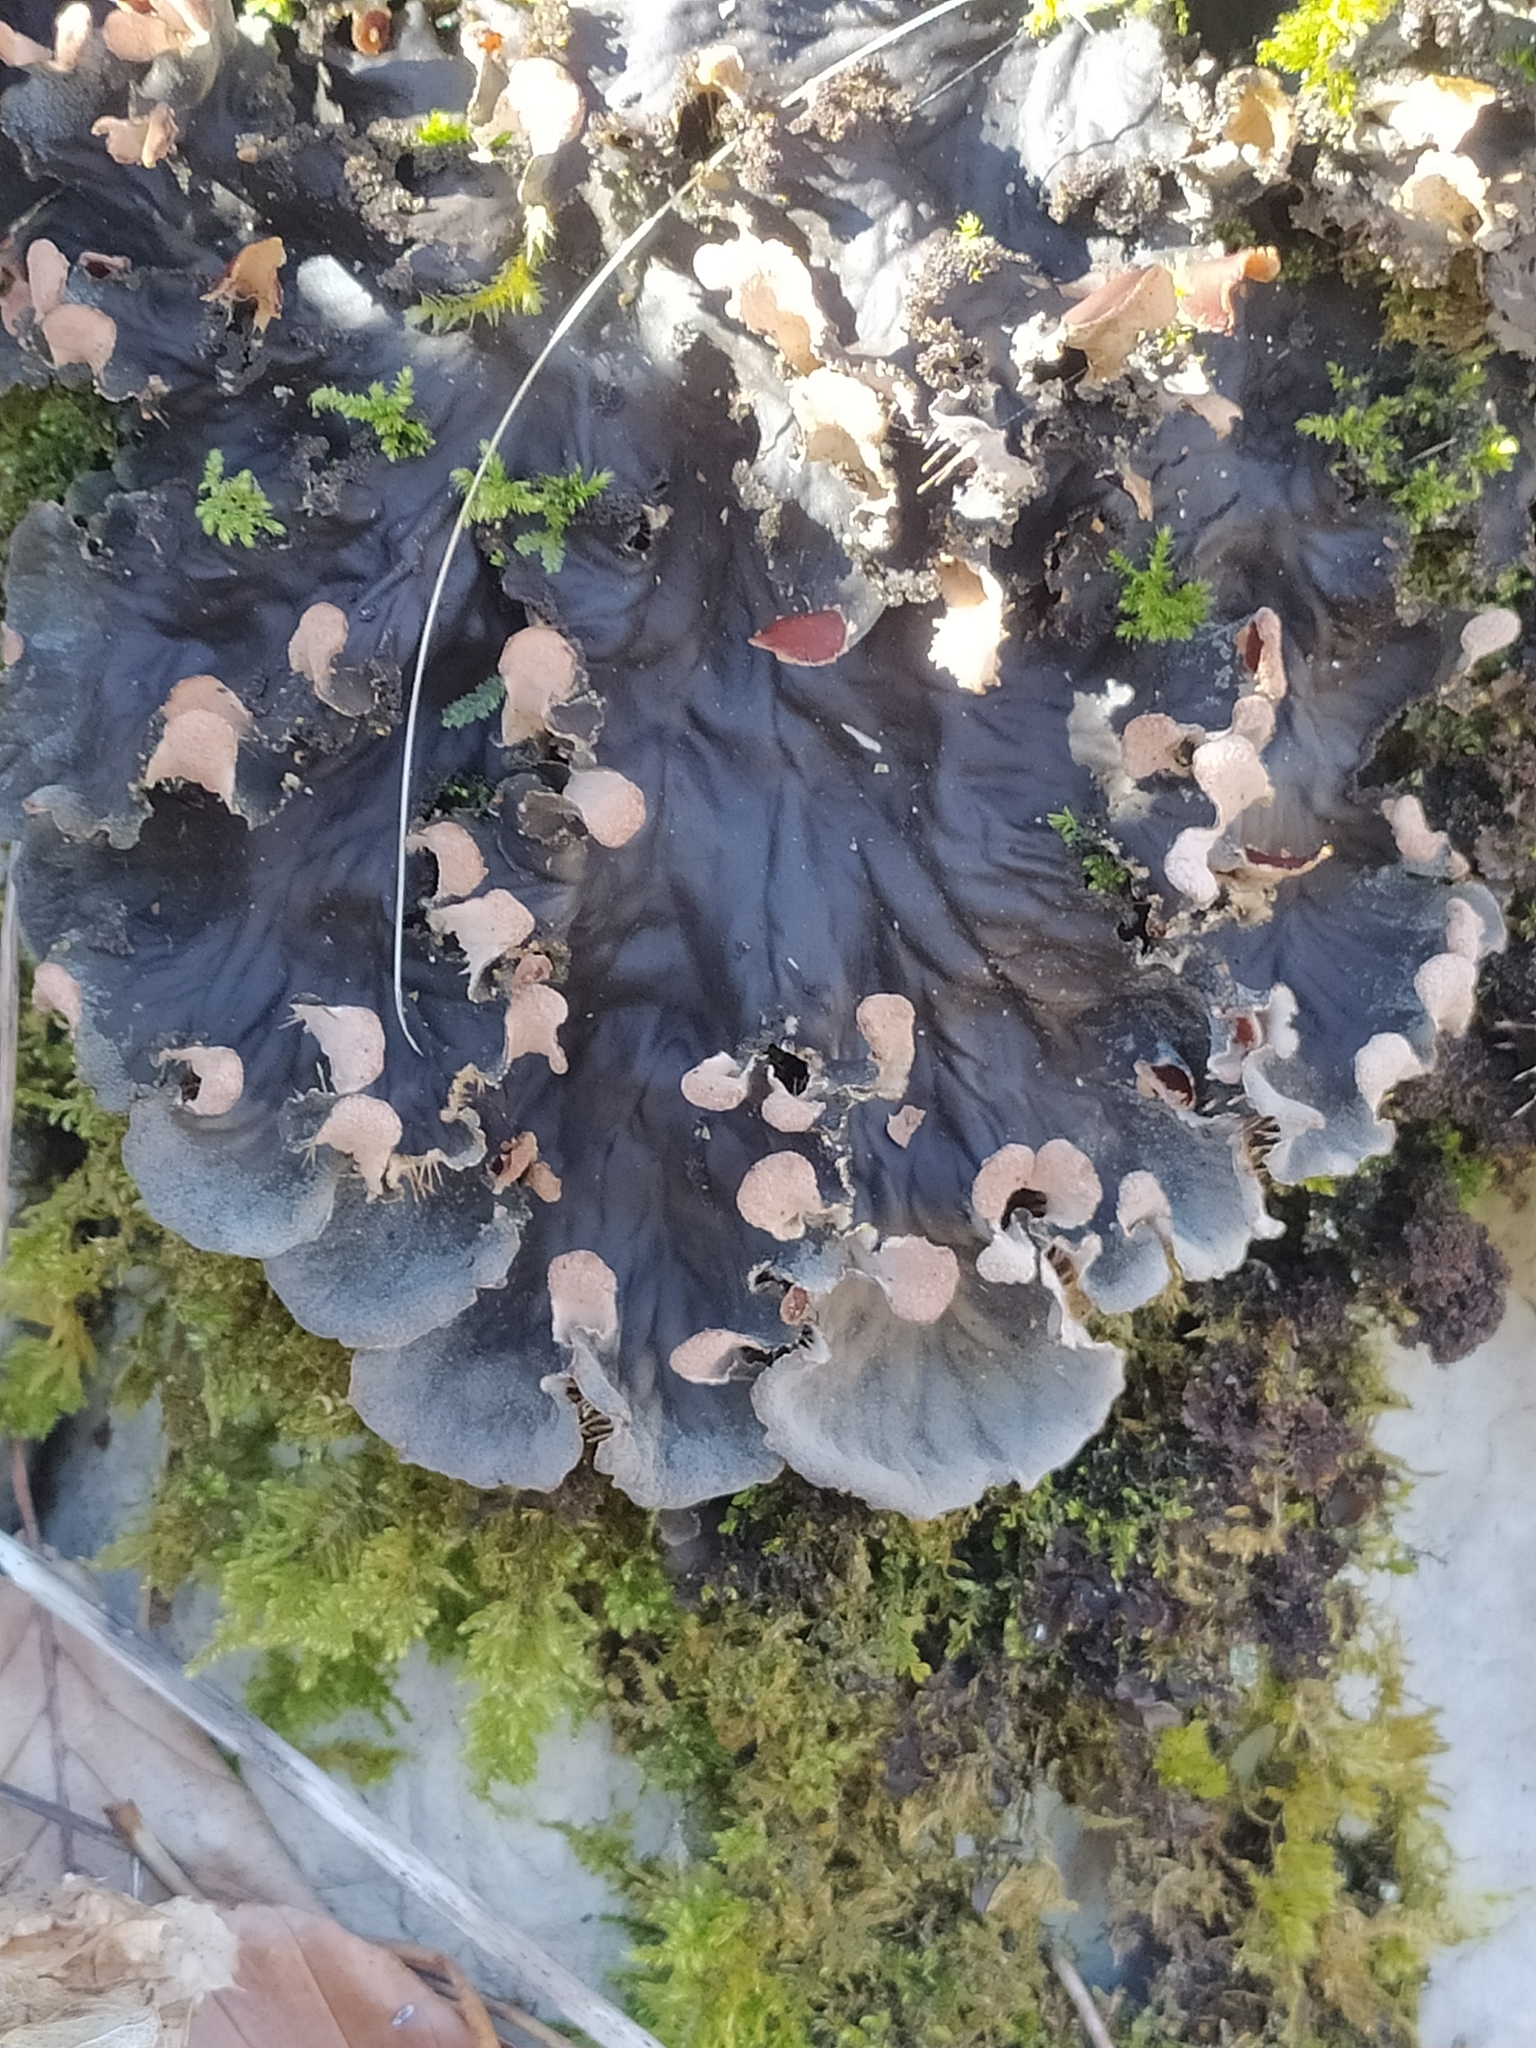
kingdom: Fungi
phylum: Ascomycota
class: Lecanoromycetes
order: Peltigerales
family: Peltigeraceae
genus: Peltigera
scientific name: Peltigera praetextata
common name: Scaly dog-lichen
